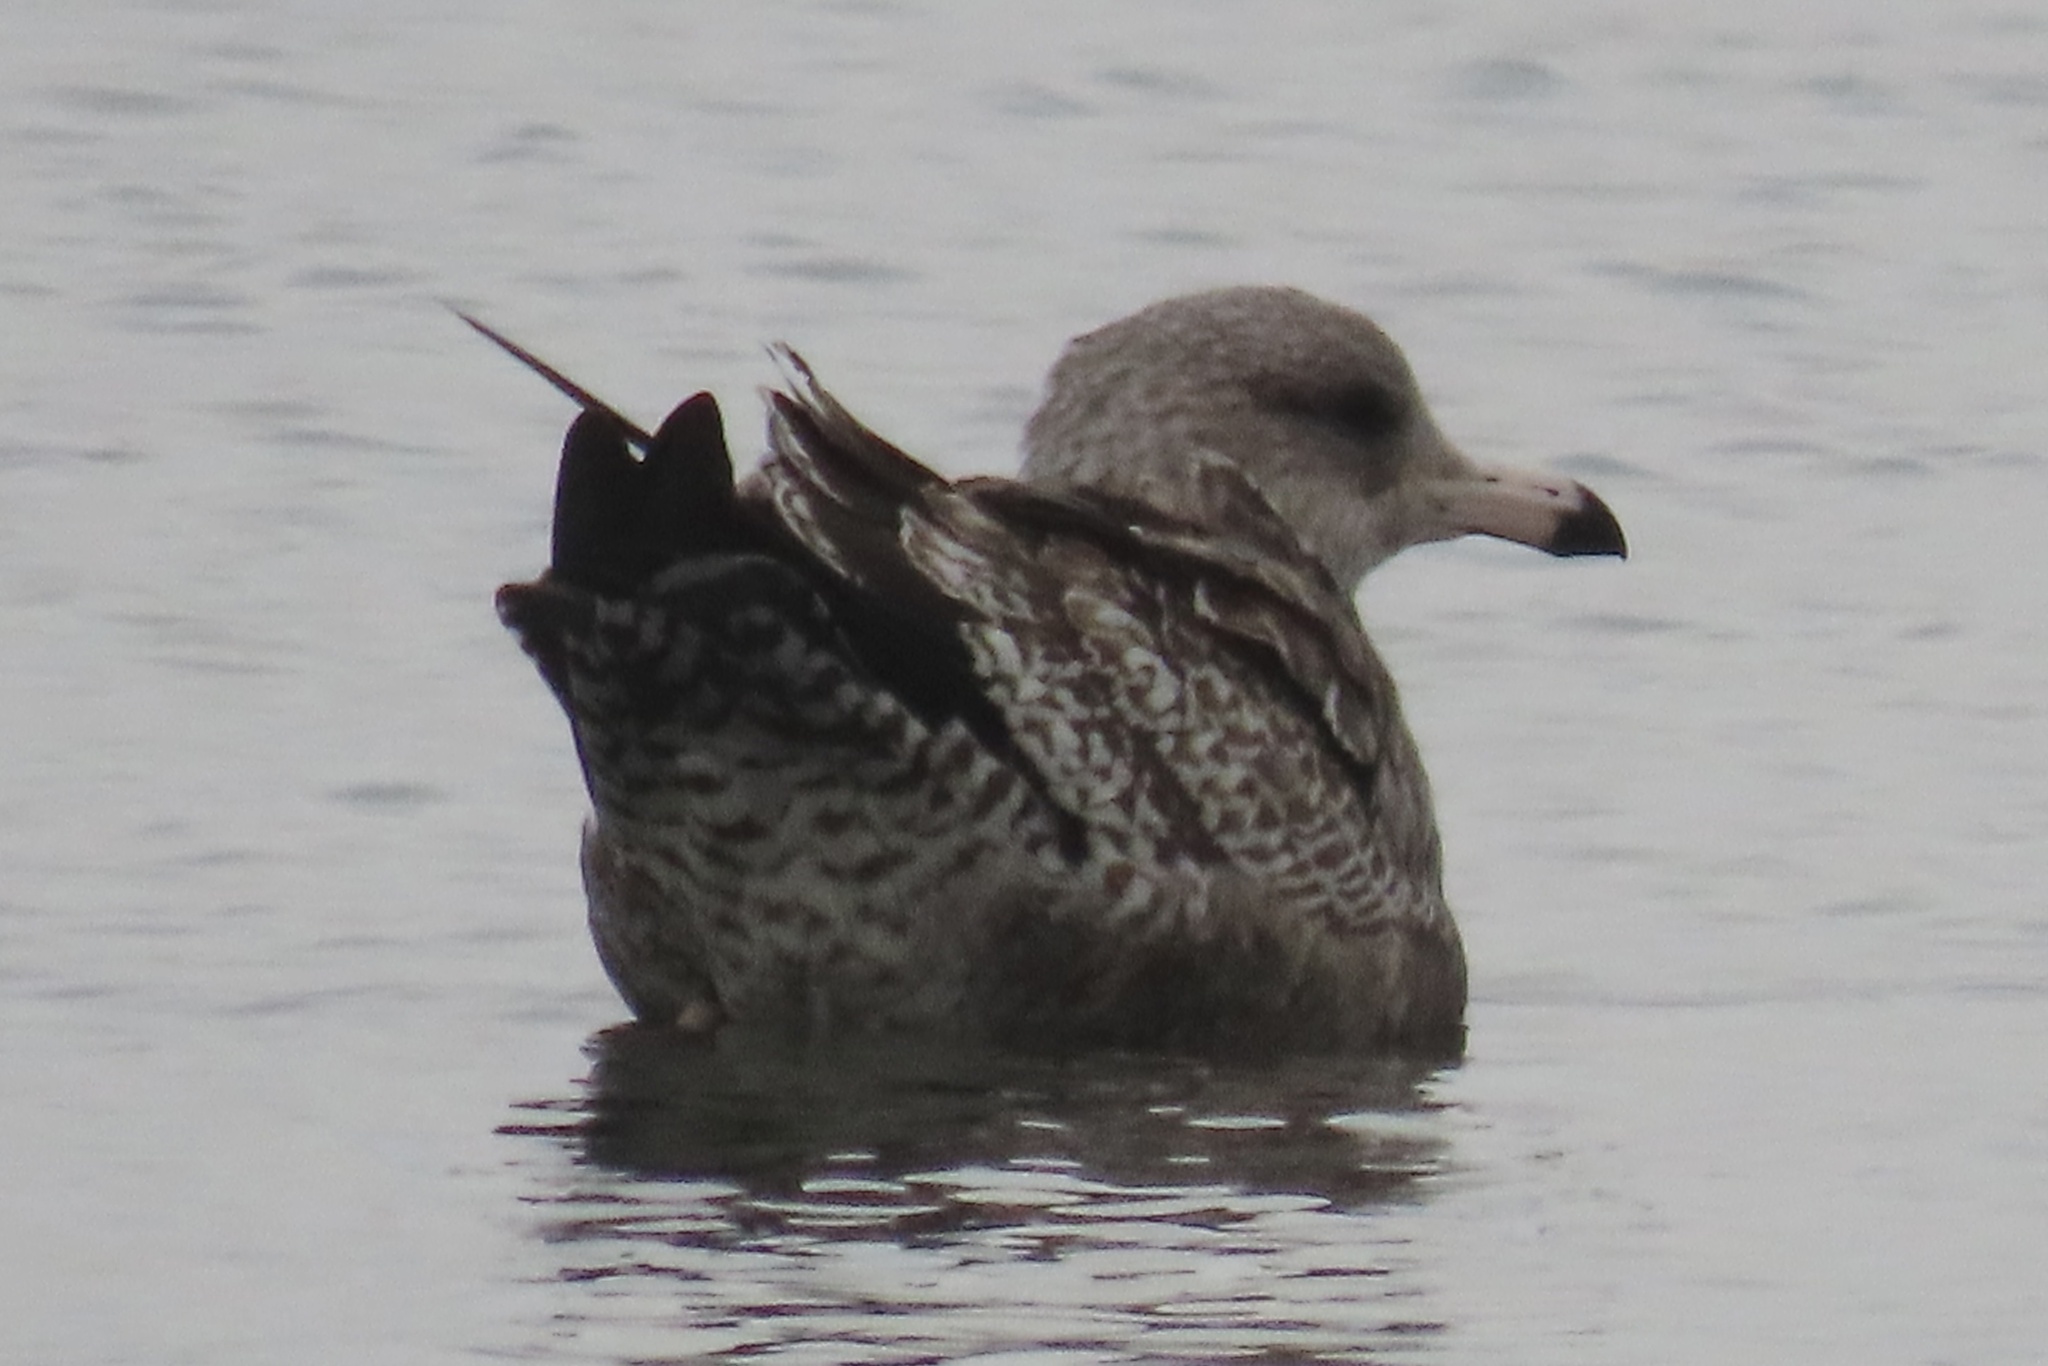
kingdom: Animalia
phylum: Chordata
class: Aves
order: Charadriiformes
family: Laridae
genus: Larus
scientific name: Larus californicus
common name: California gull
